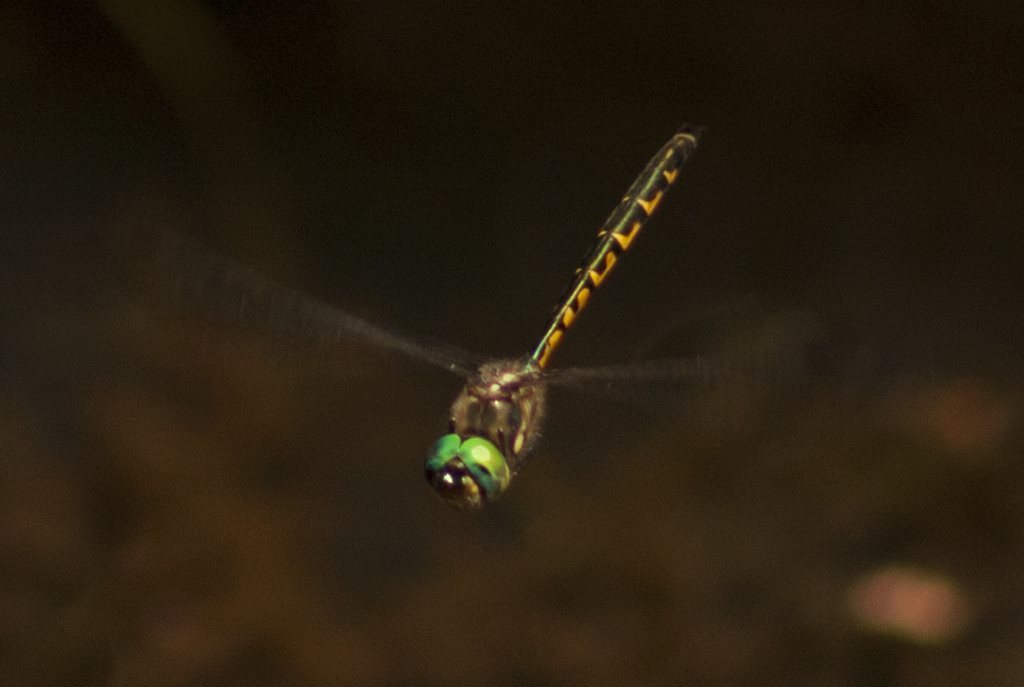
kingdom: Animalia
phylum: Arthropoda
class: Insecta
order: Odonata
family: Corduliidae
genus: Hemicordulia
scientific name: Hemicordulia australiae
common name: Sentry dragonfly
